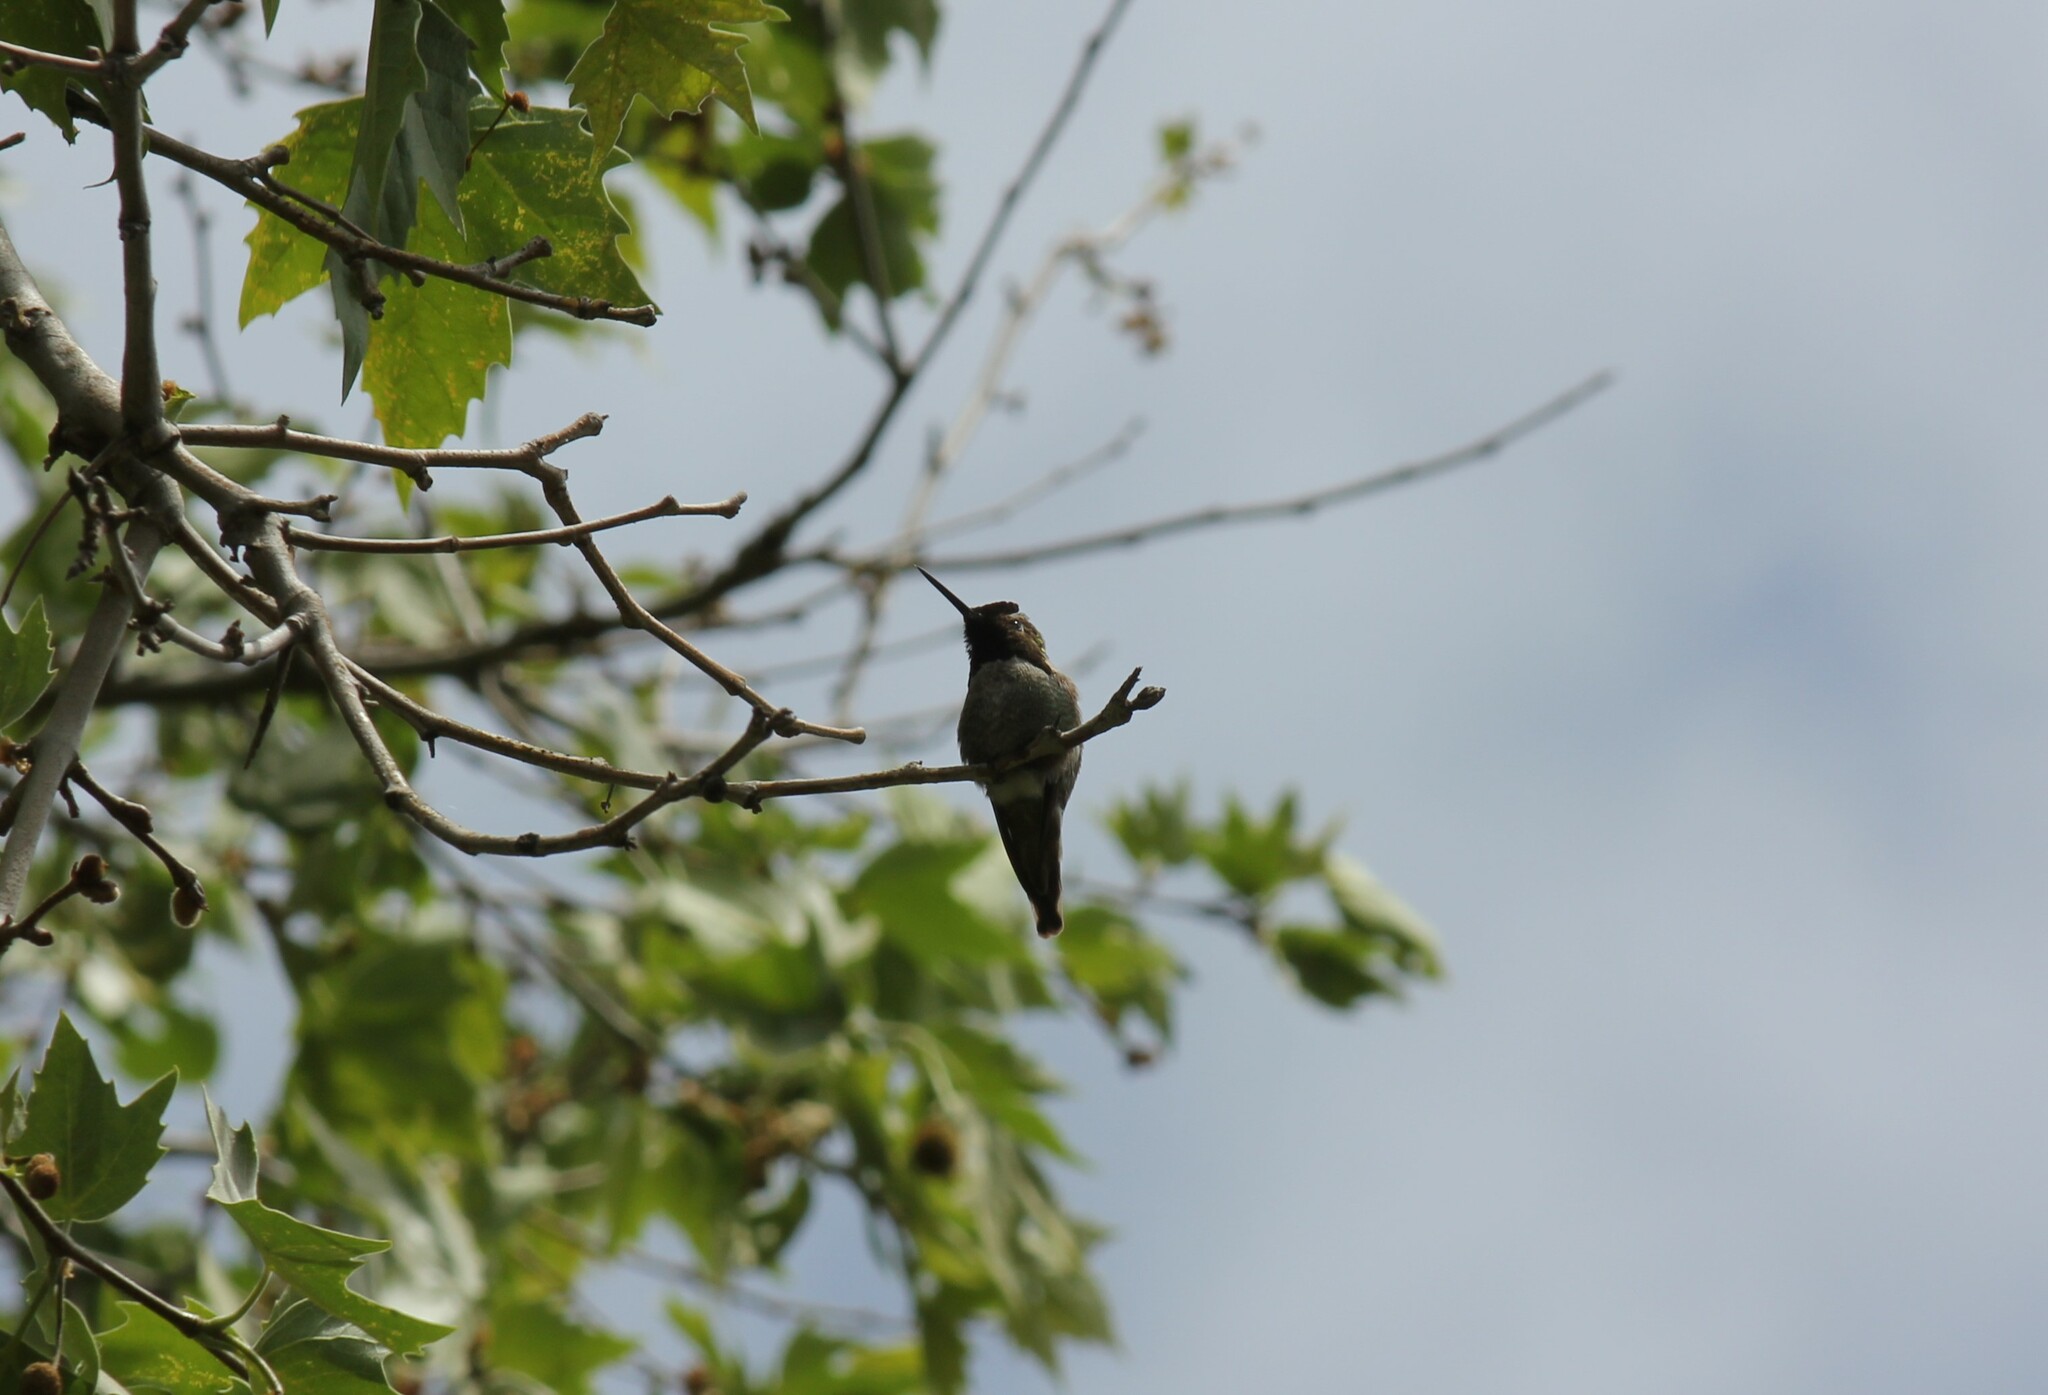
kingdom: Animalia
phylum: Chordata
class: Aves
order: Apodiformes
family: Trochilidae
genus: Calypte
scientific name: Calypte anna
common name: Anna's hummingbird
